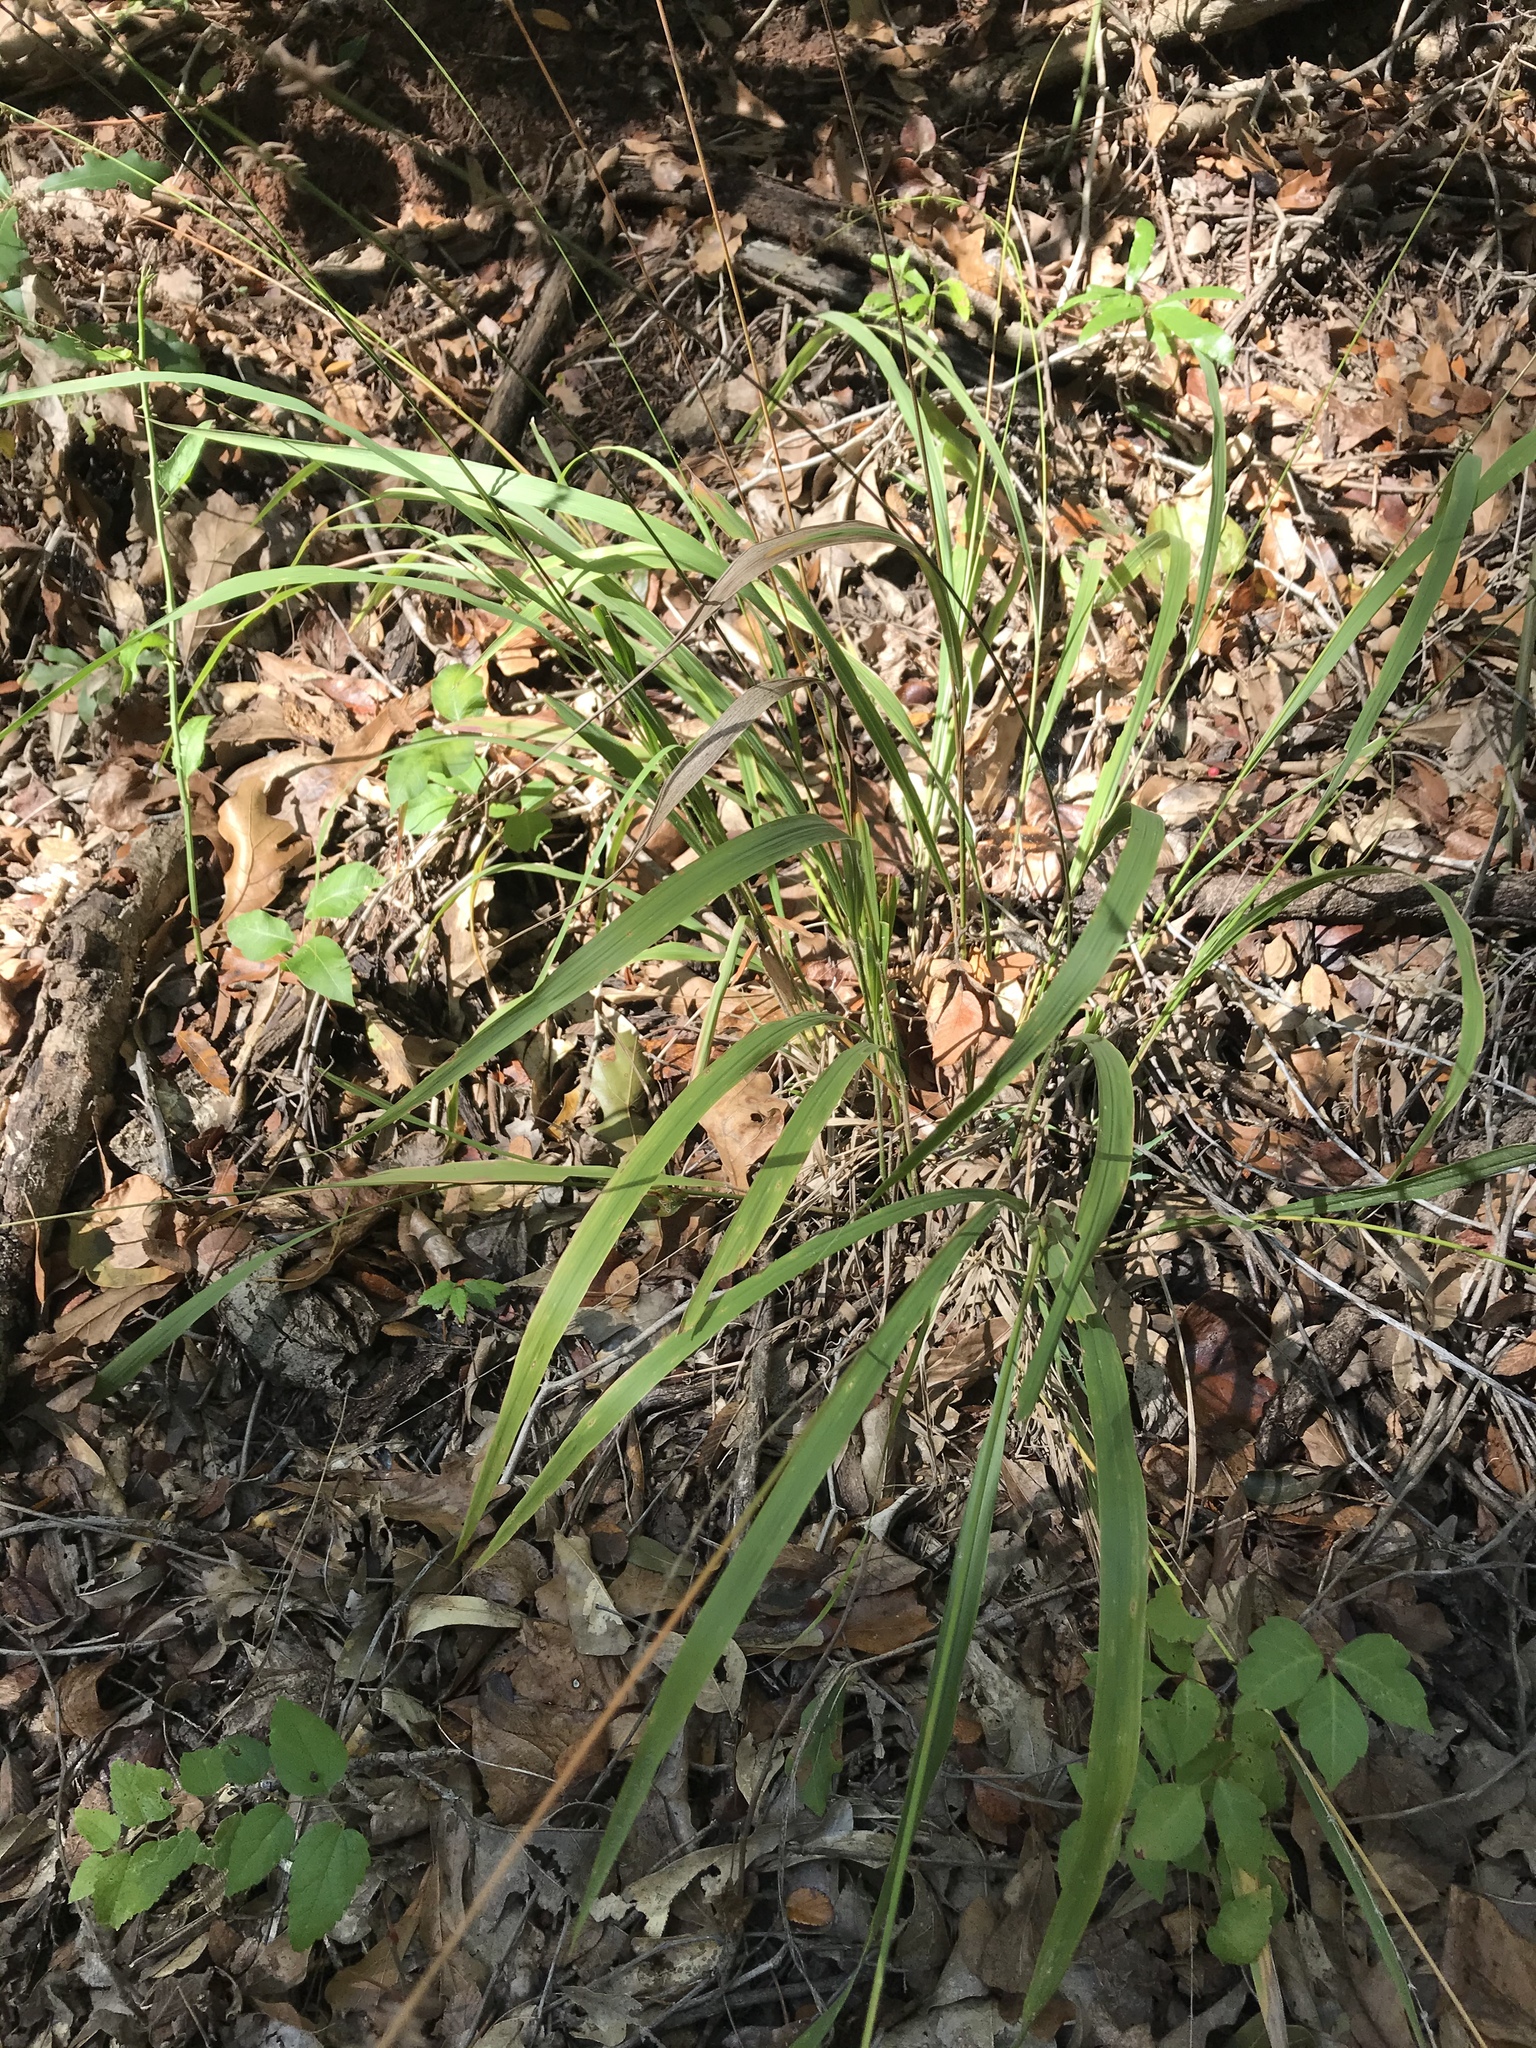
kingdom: Plantae
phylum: Tracheophyta
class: Liliopsida
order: Poales
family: Poaceae
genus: Chasmanthium
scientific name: Chasmanthium laxum
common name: Slender chasmanthium
